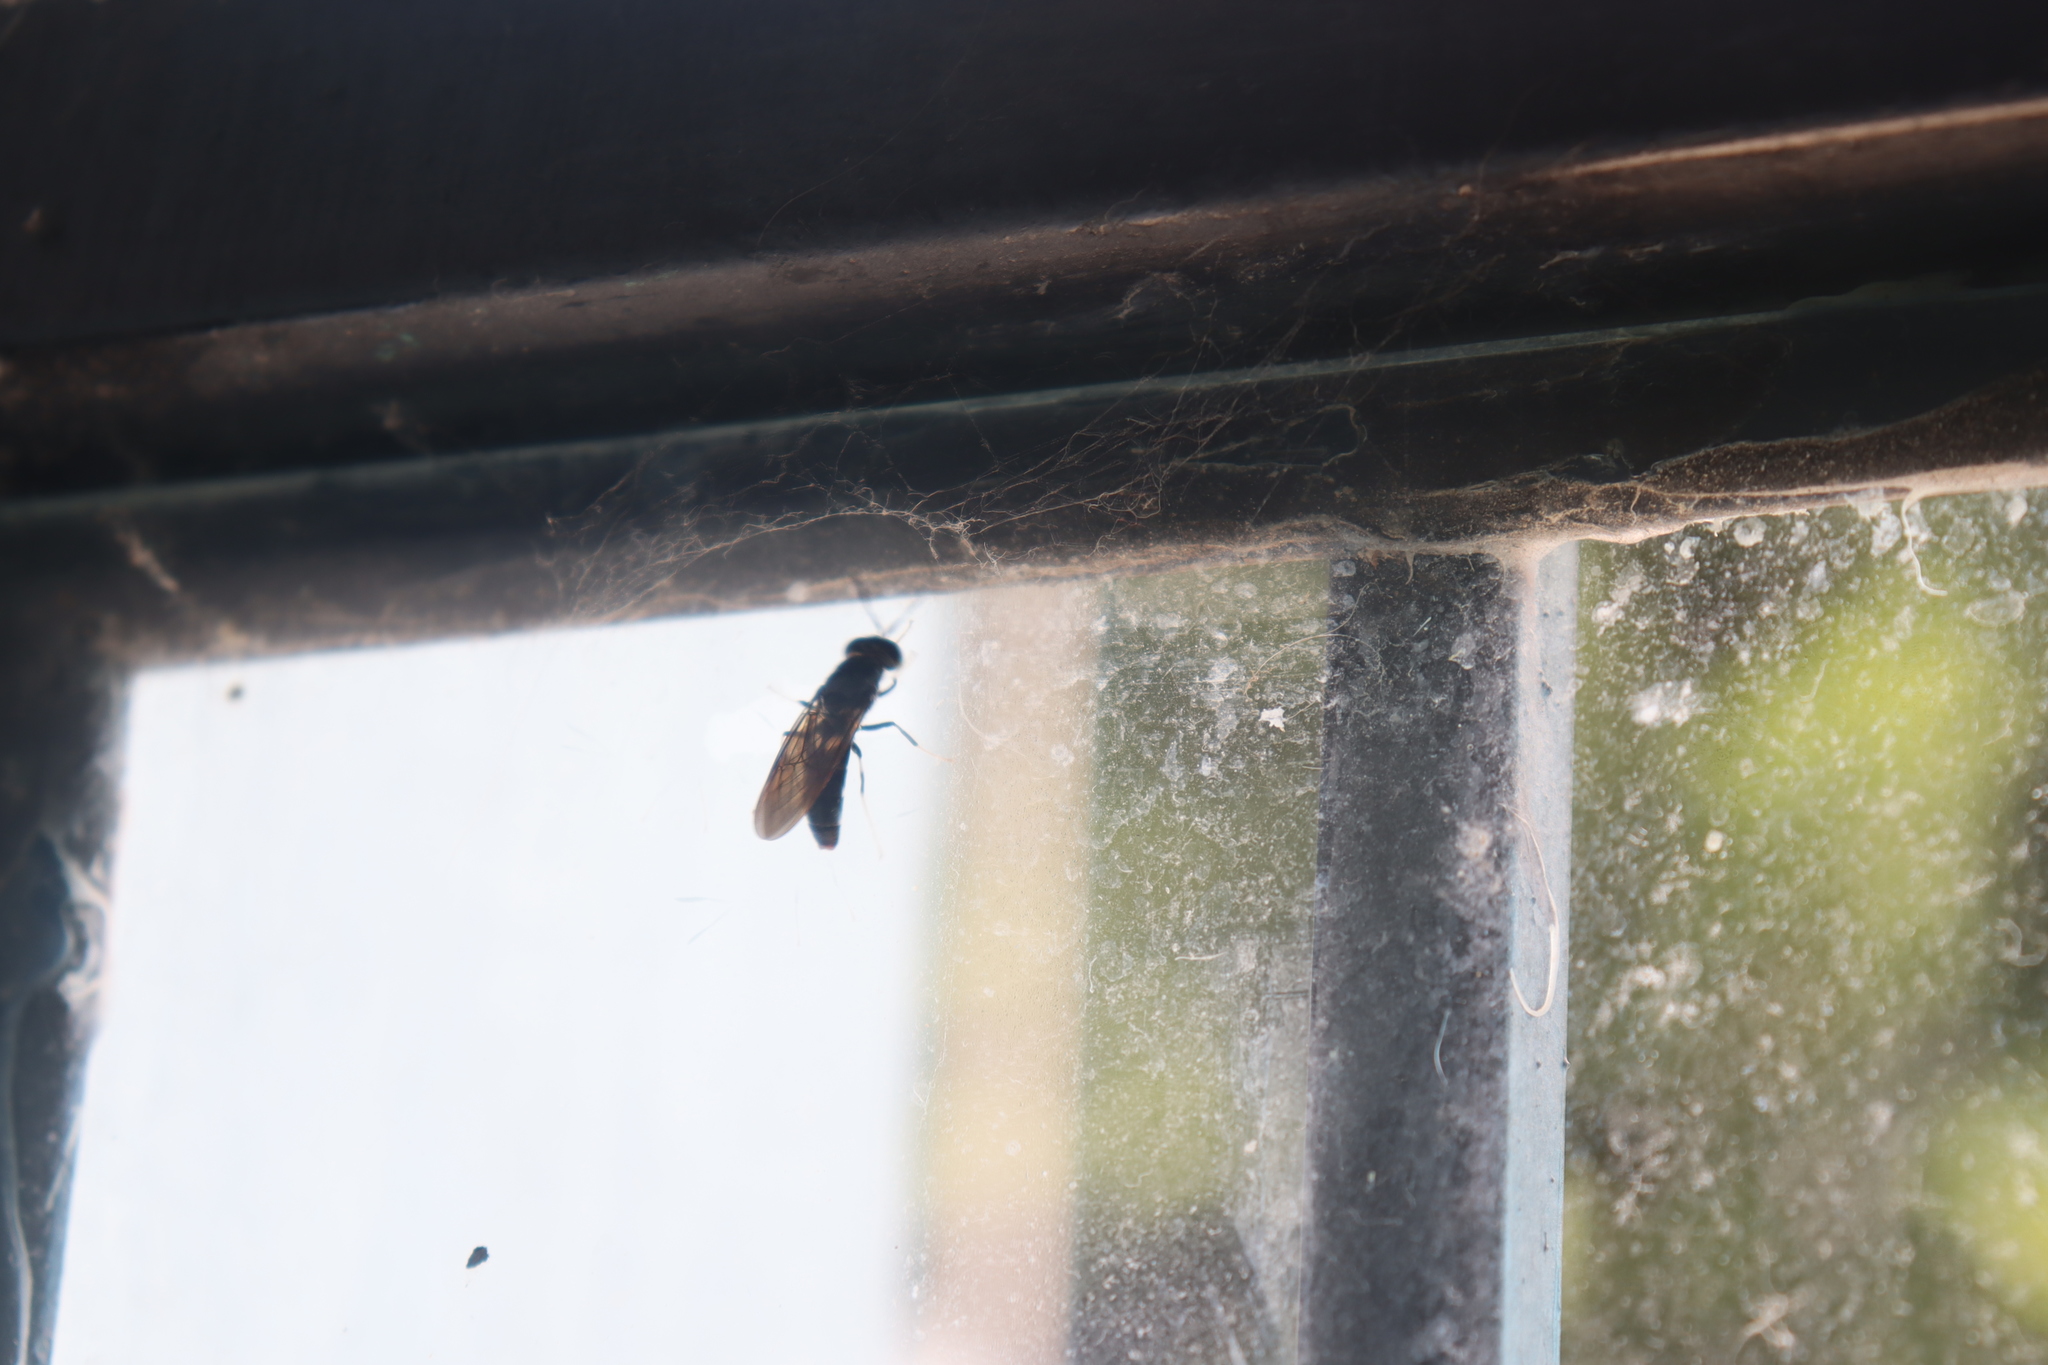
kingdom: Animalia
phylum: Arthropoda
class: Insecta
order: Diptera
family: Stratiomyidae
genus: Hermetia
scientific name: Hermetia illucens
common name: Black soldier fly
